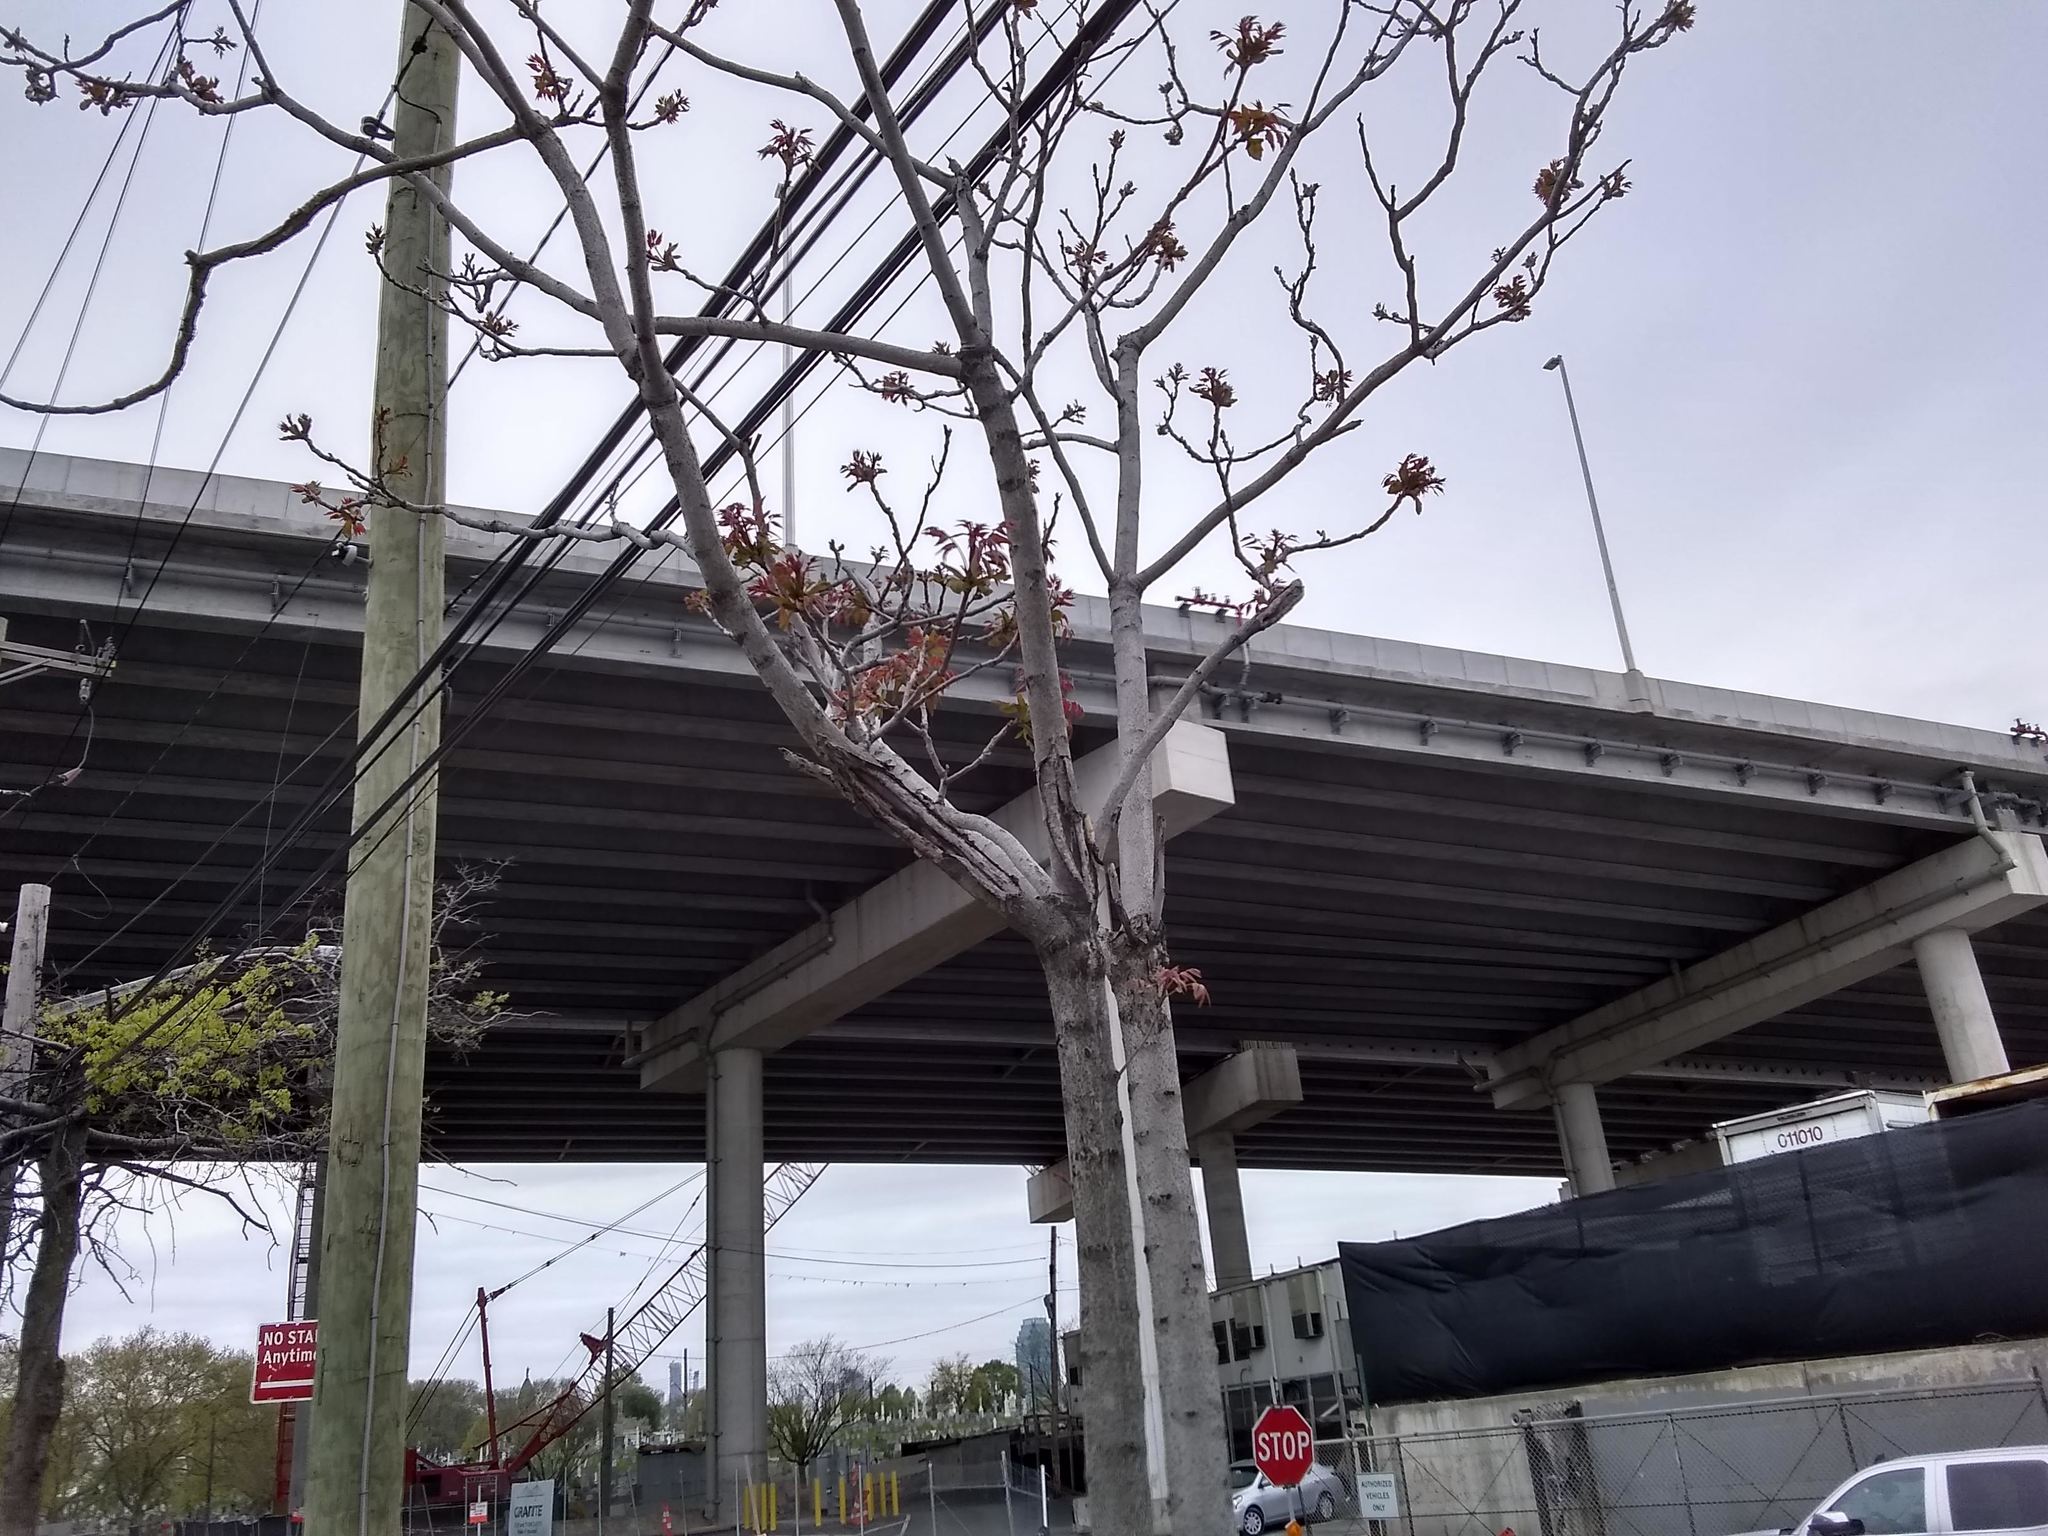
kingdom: Plantae
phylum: Tracheophyta
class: Magnoliopsida
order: Sapindales
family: Simaroubaceae
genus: Ailanthus
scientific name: Ailanthus altissima
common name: Tree-of-heaven
